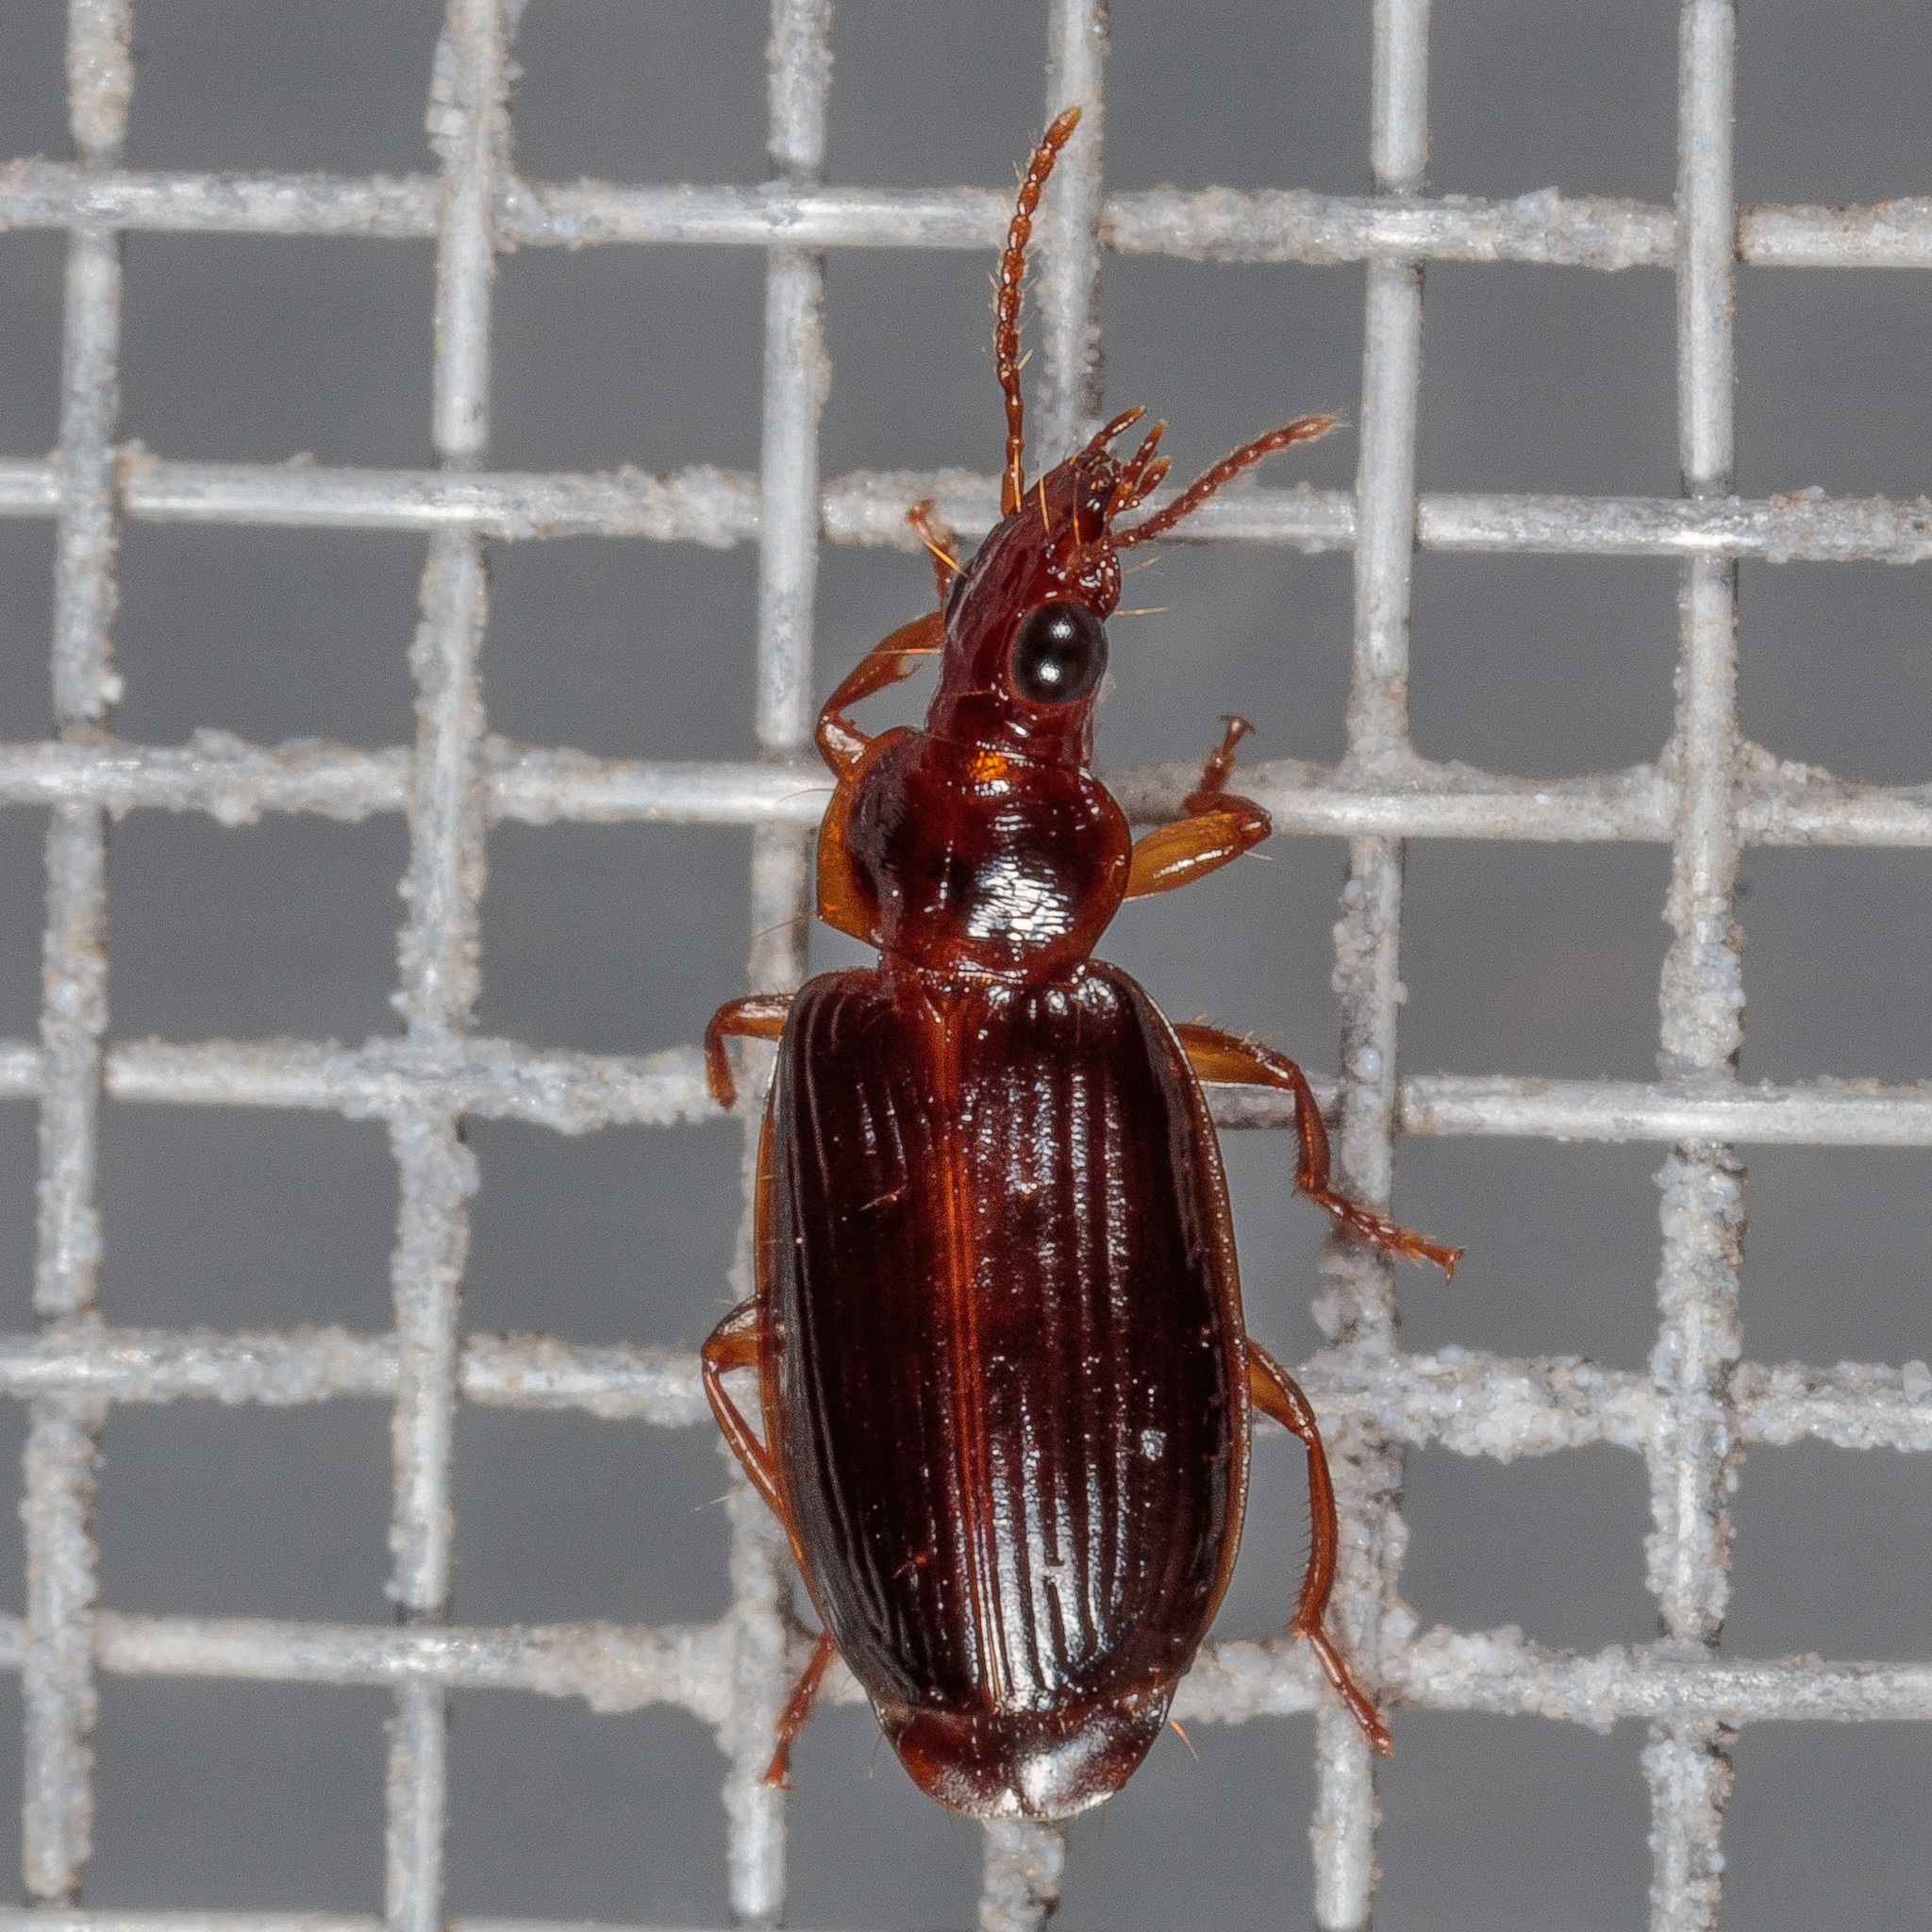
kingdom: Animalia
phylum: Arthropoda
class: Insecta
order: Coleoptera
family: Carabidae
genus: Plochionus
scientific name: Plochionus timidus
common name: Timid harp ground beetle
